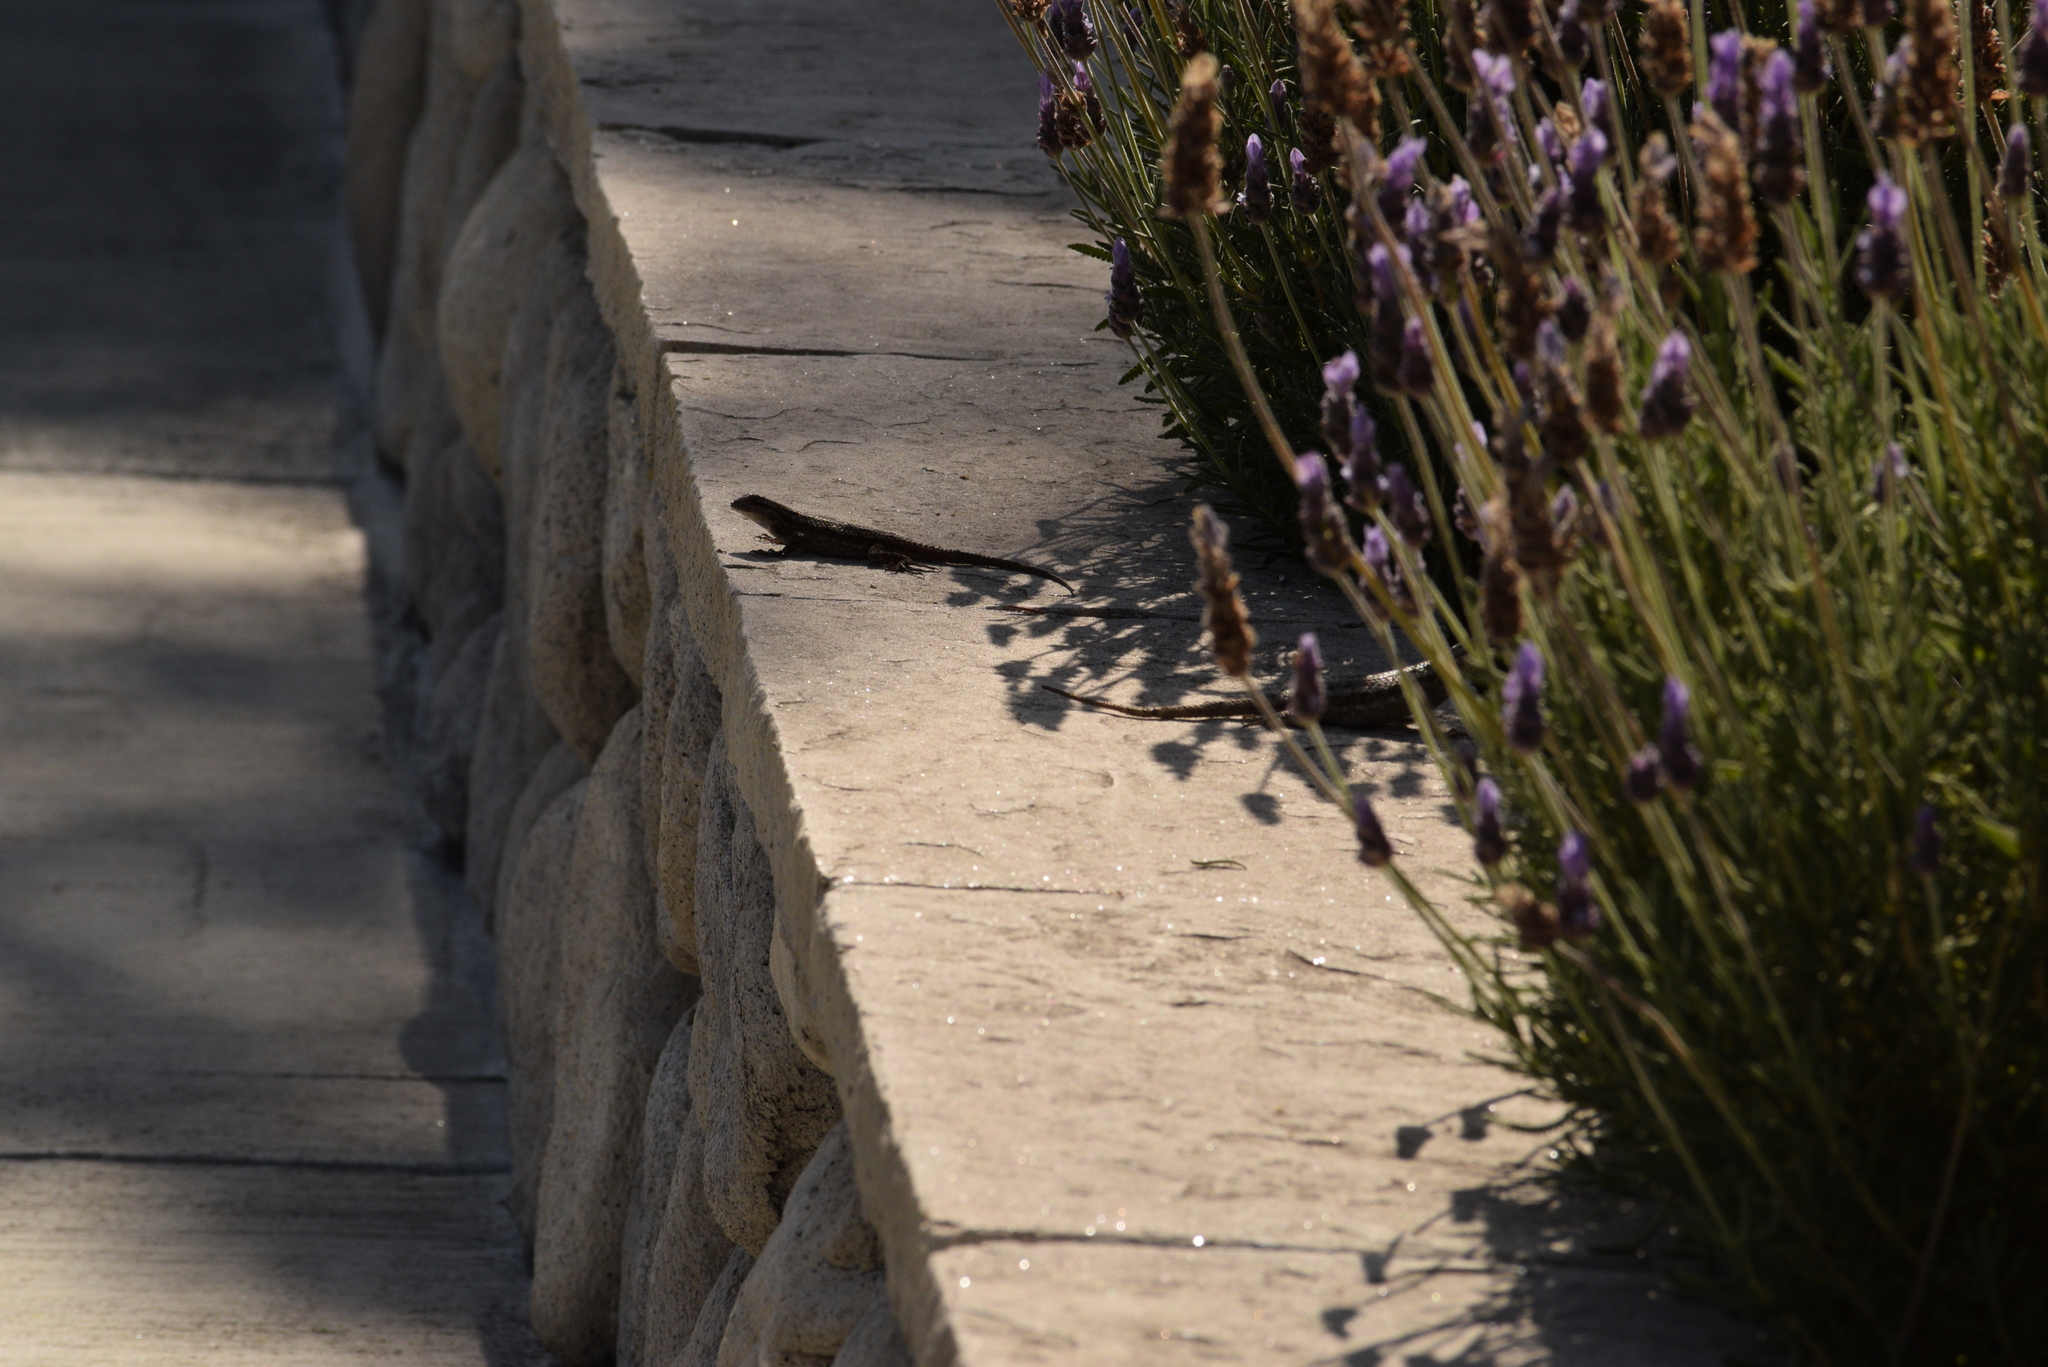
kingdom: Animalia
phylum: Chordata
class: Squamata
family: Phrynosomatidae
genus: Sceloporus
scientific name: Sceloporus occidentalis
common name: Western fence lizard
